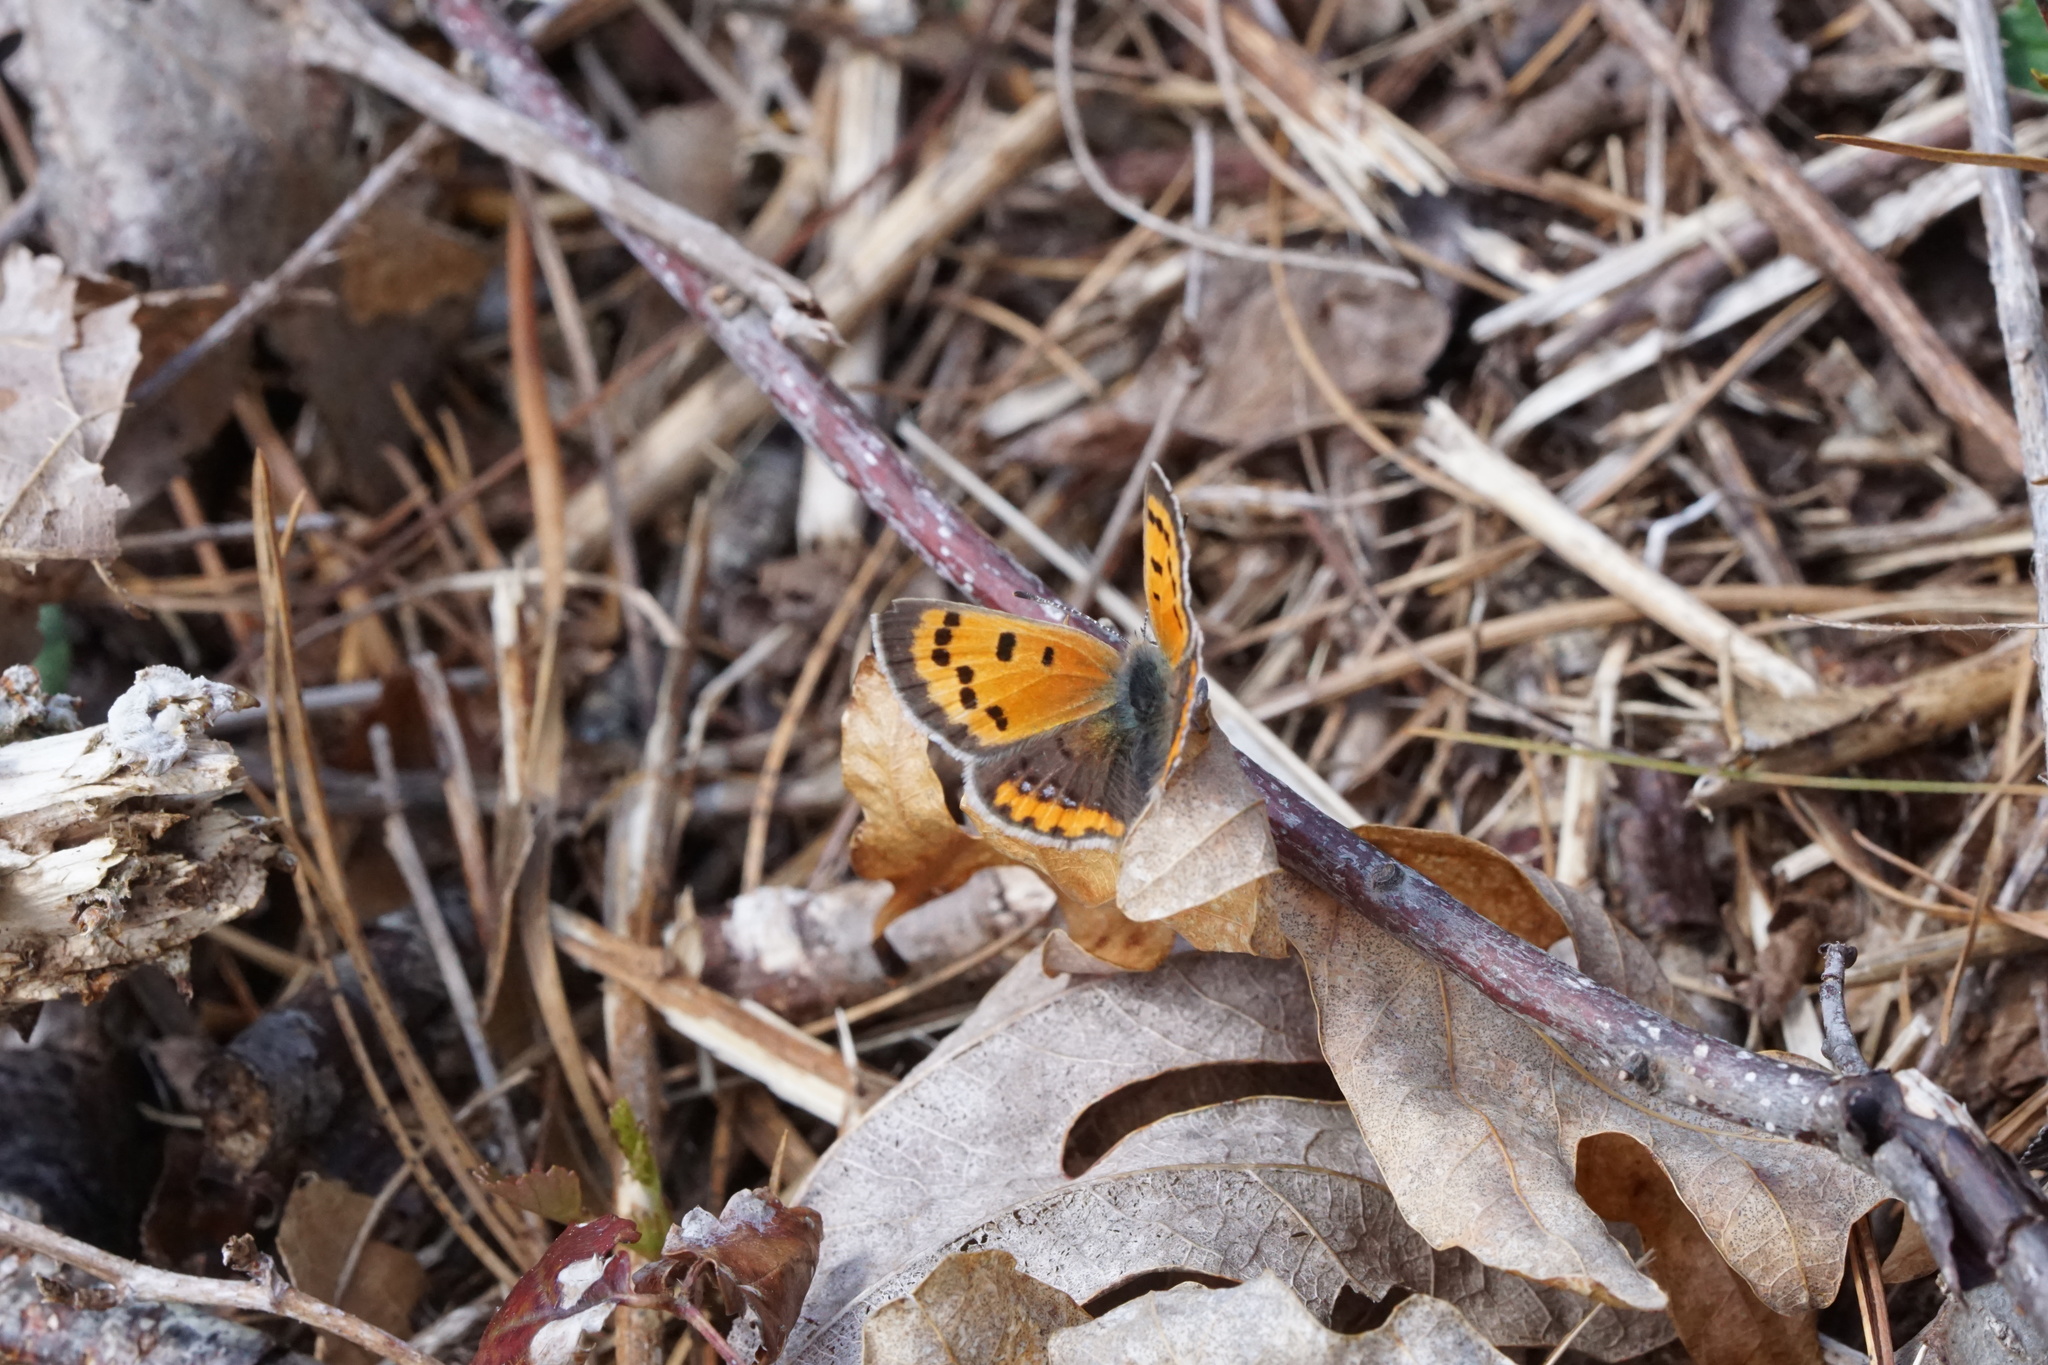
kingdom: Animalia
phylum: Arthropoda
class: Insecta
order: Lepidoptera
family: Lycaenidae
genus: Lycaena
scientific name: Lycaena hypophlaeas
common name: American copper
